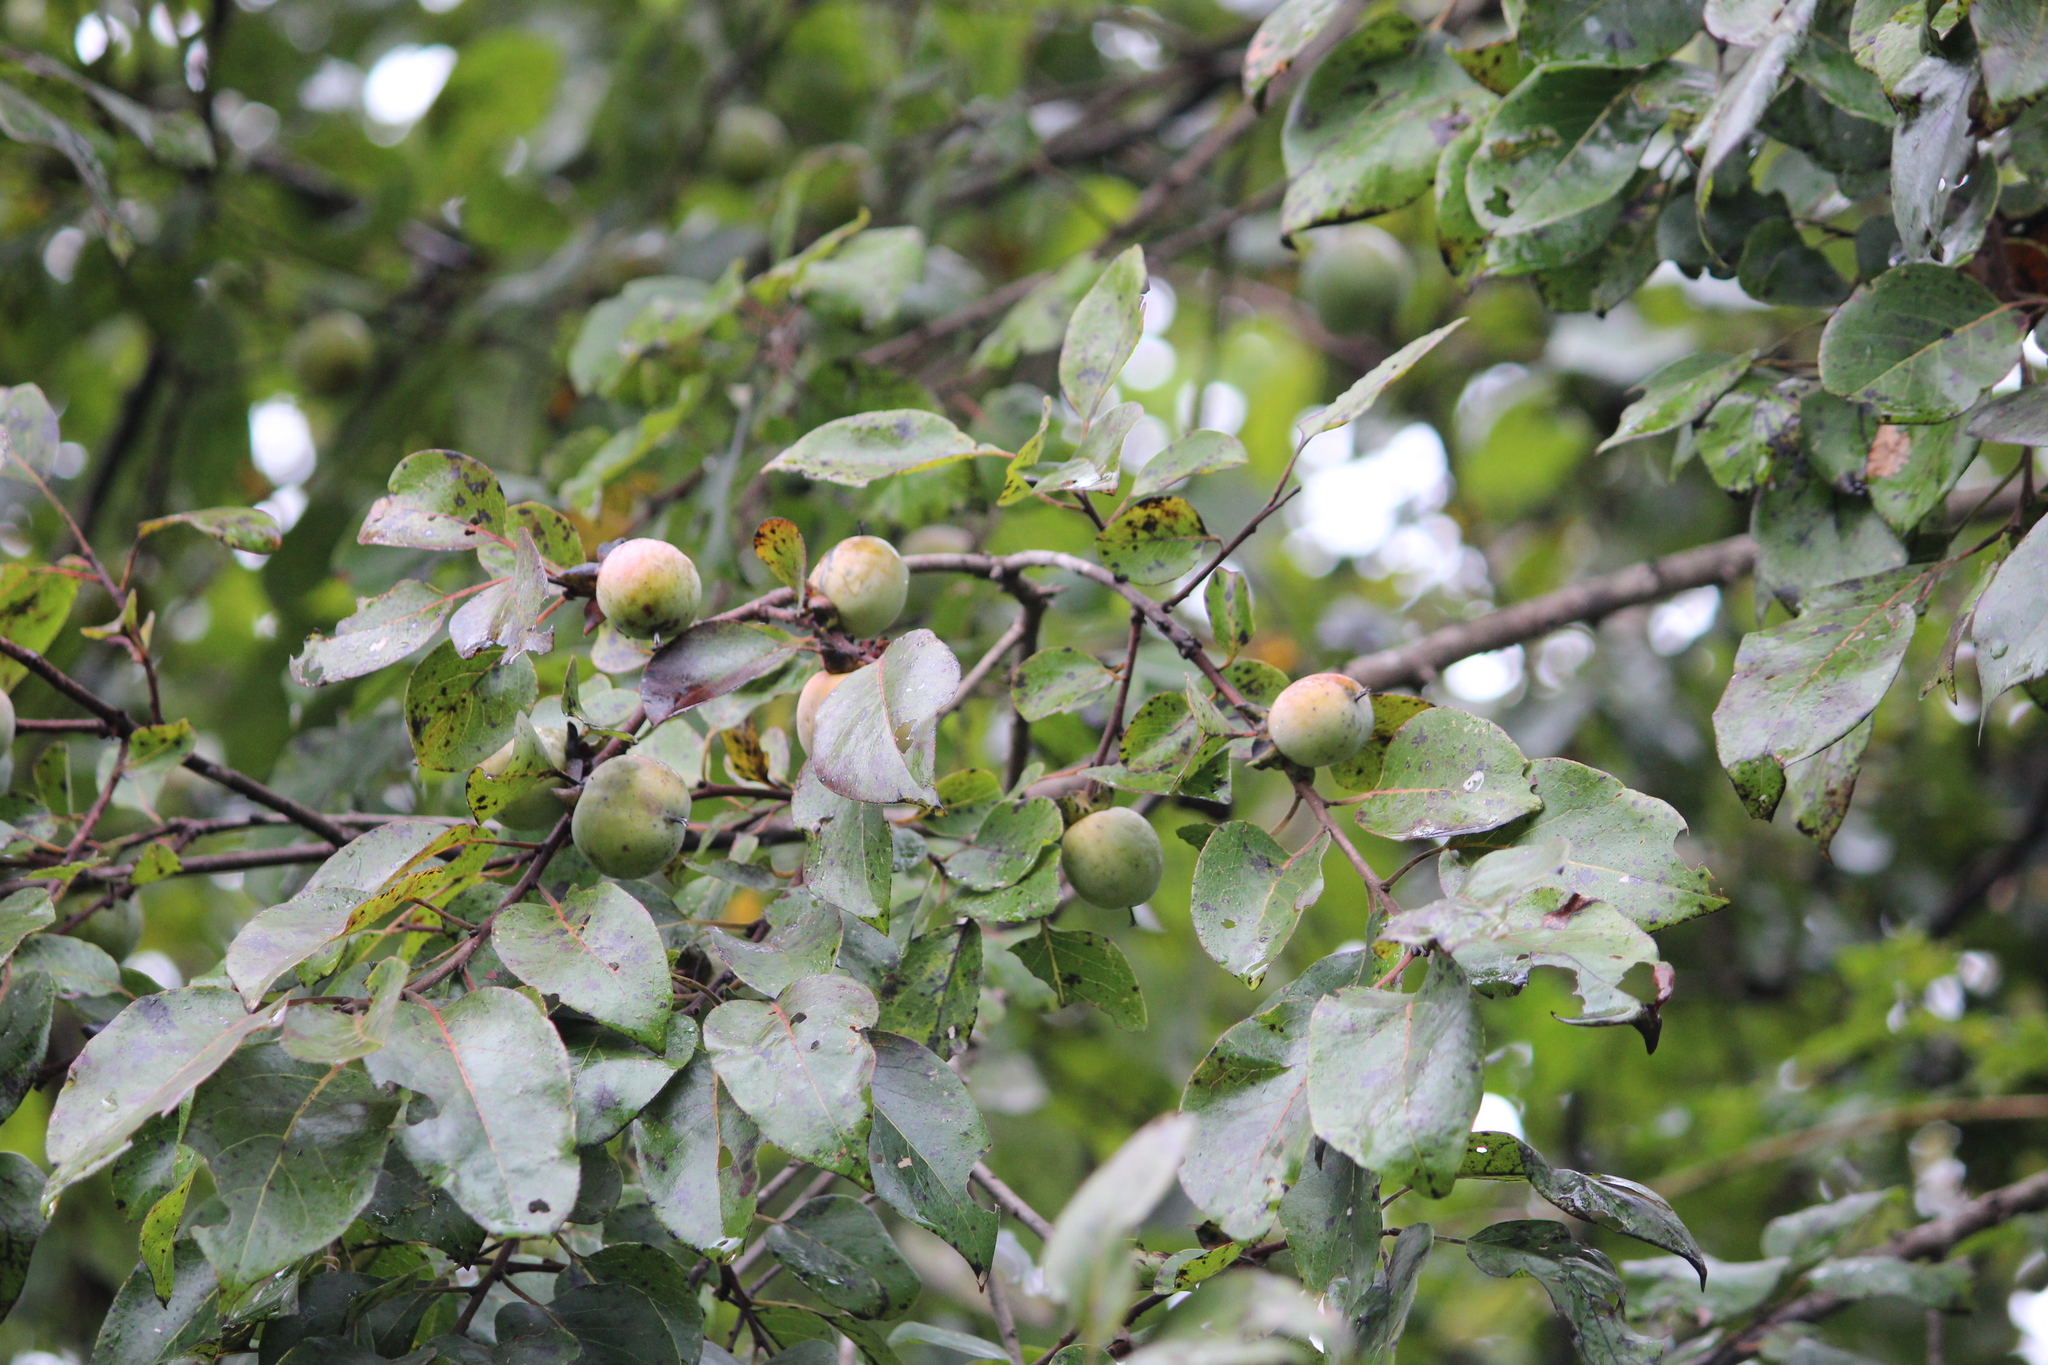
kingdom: Plantae
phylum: Tracheophyta
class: Magnoliopsida
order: Ericales
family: Ebenaceae
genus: Diospyros
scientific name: Diospyros virginiana
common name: Persimmon
